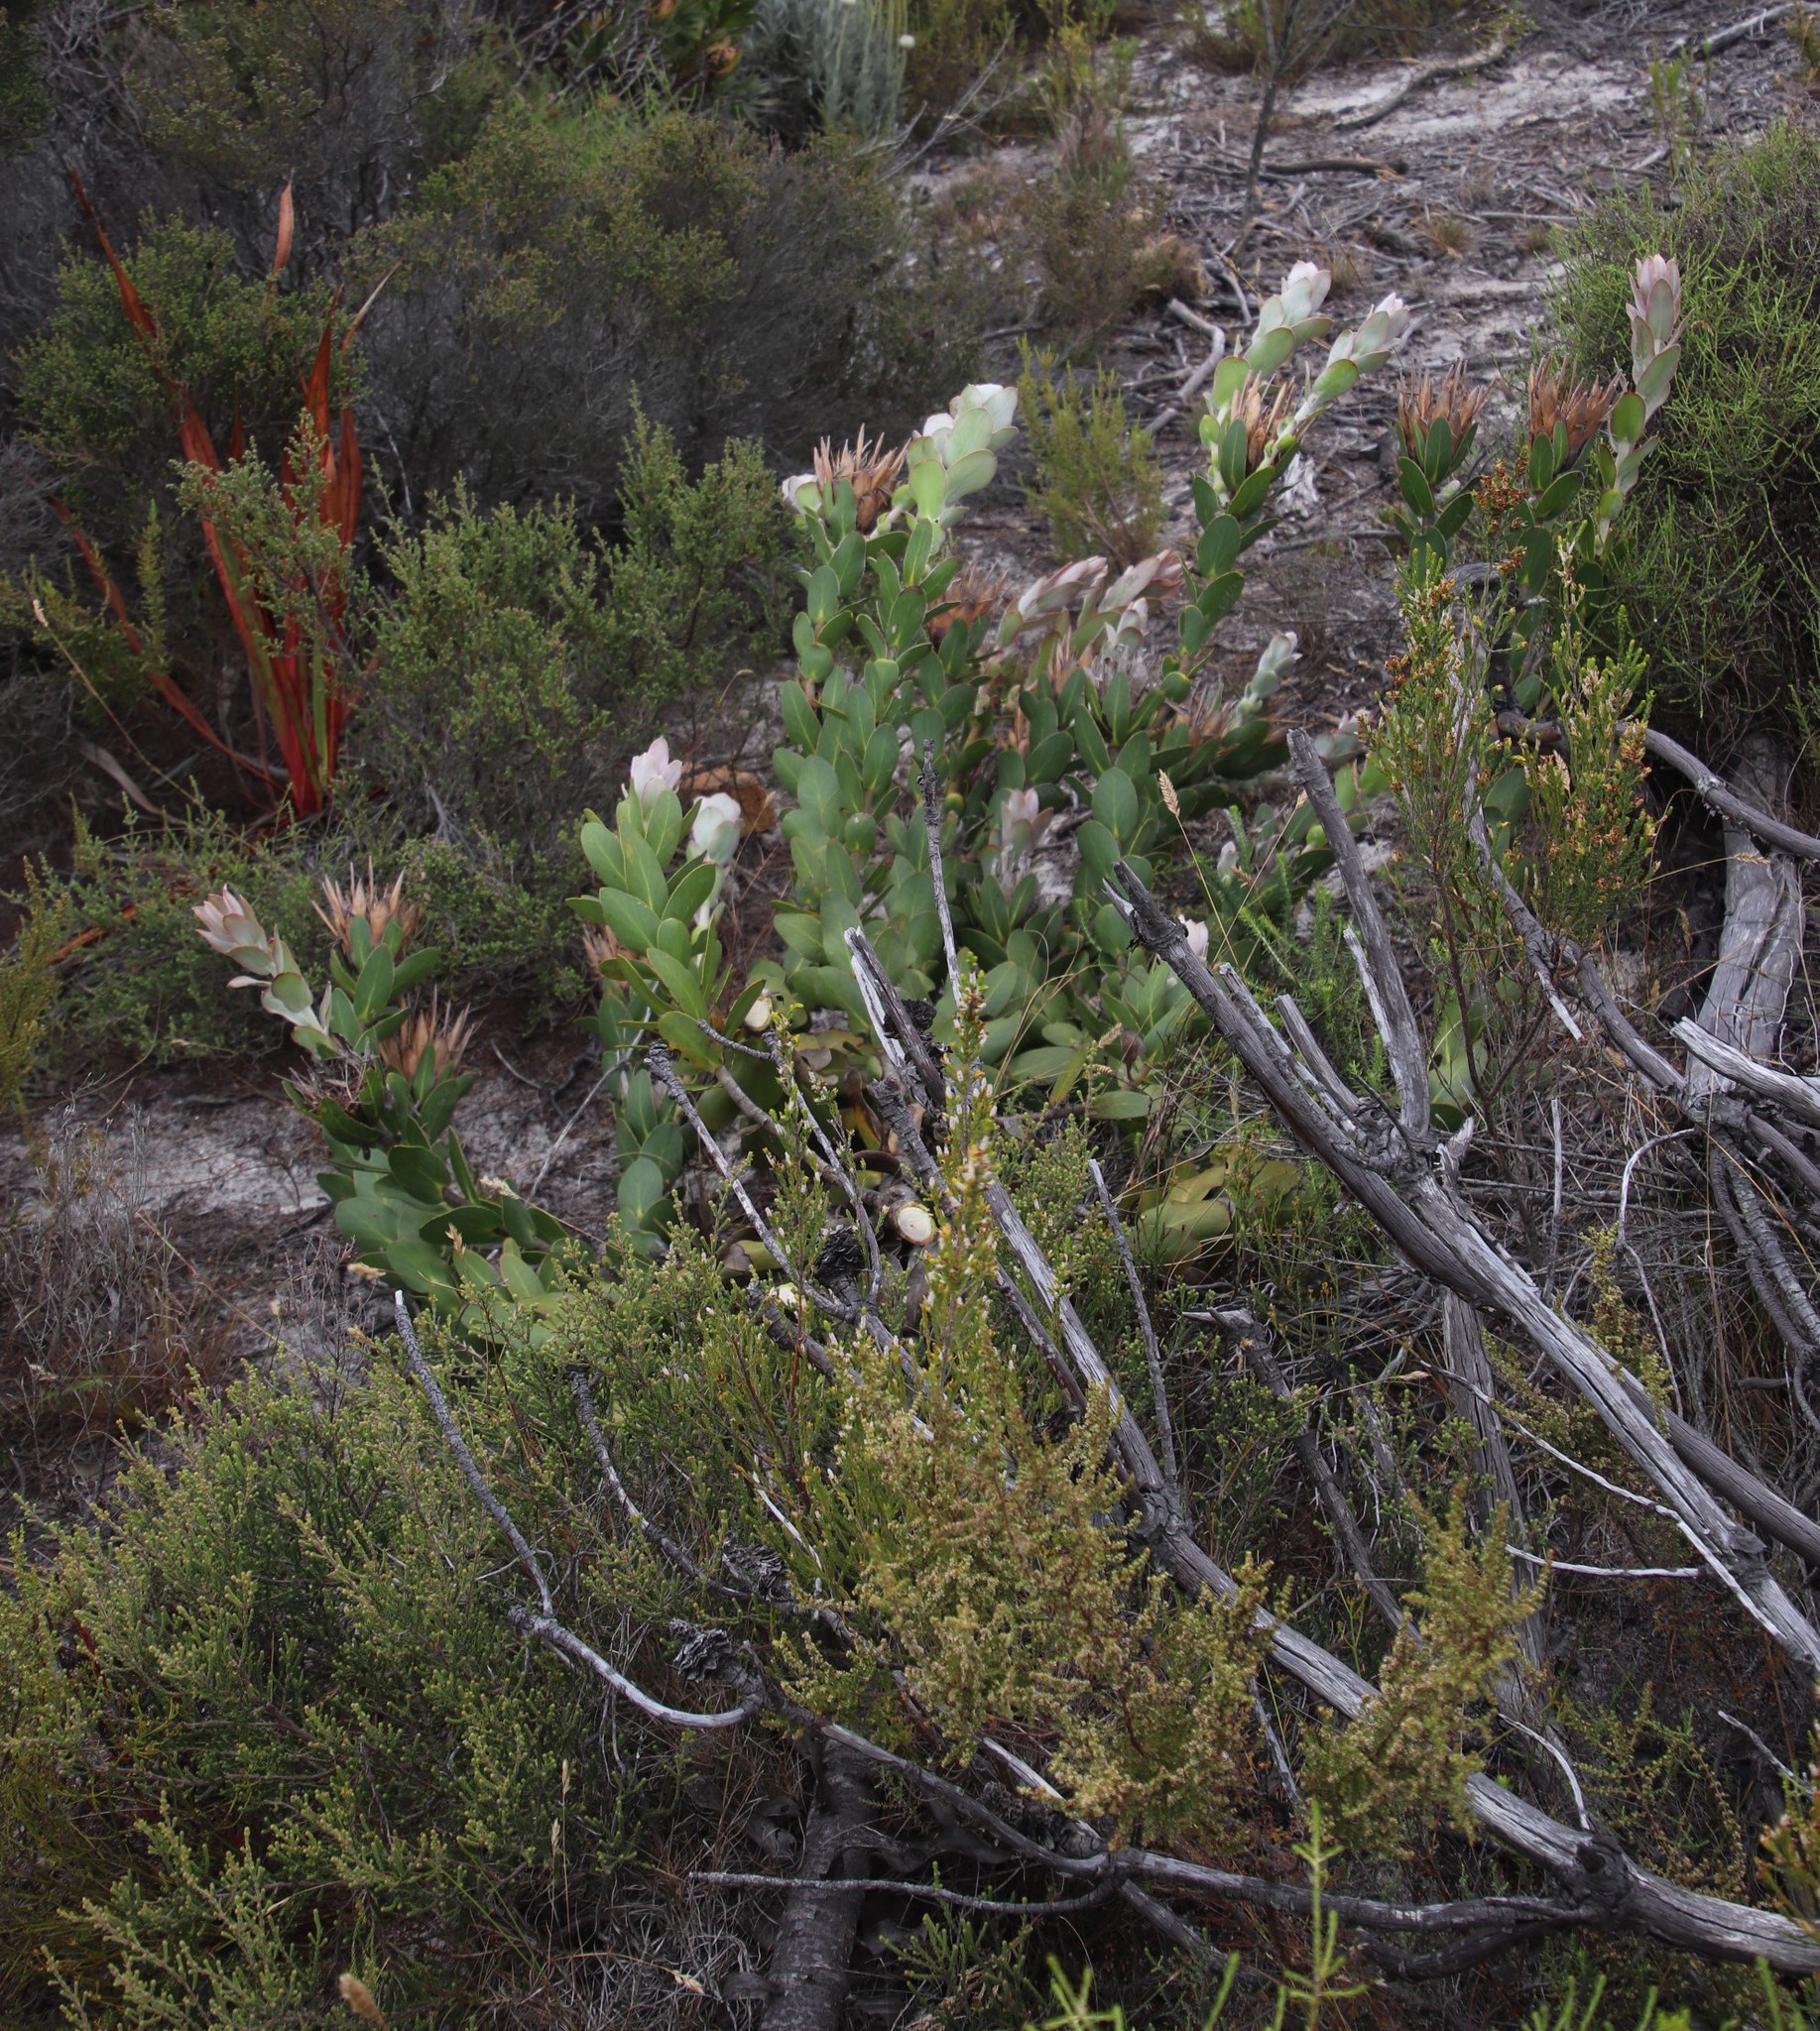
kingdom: Plantae
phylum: Tracheophyta
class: Magnoliopsida
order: Proteales
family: Proteaceae
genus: Protea
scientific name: Protea compacta
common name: Bot river protea
